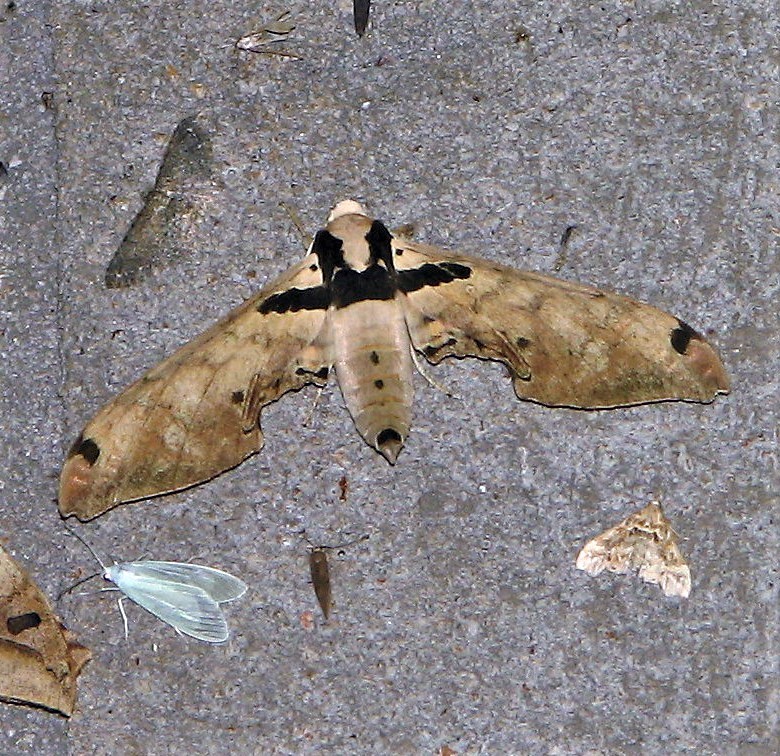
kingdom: Animalia
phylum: Arthropoda
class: Insecta
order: Lepidoptera
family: Sphingidae
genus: Adhemarius
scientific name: Adhemarius daphne
